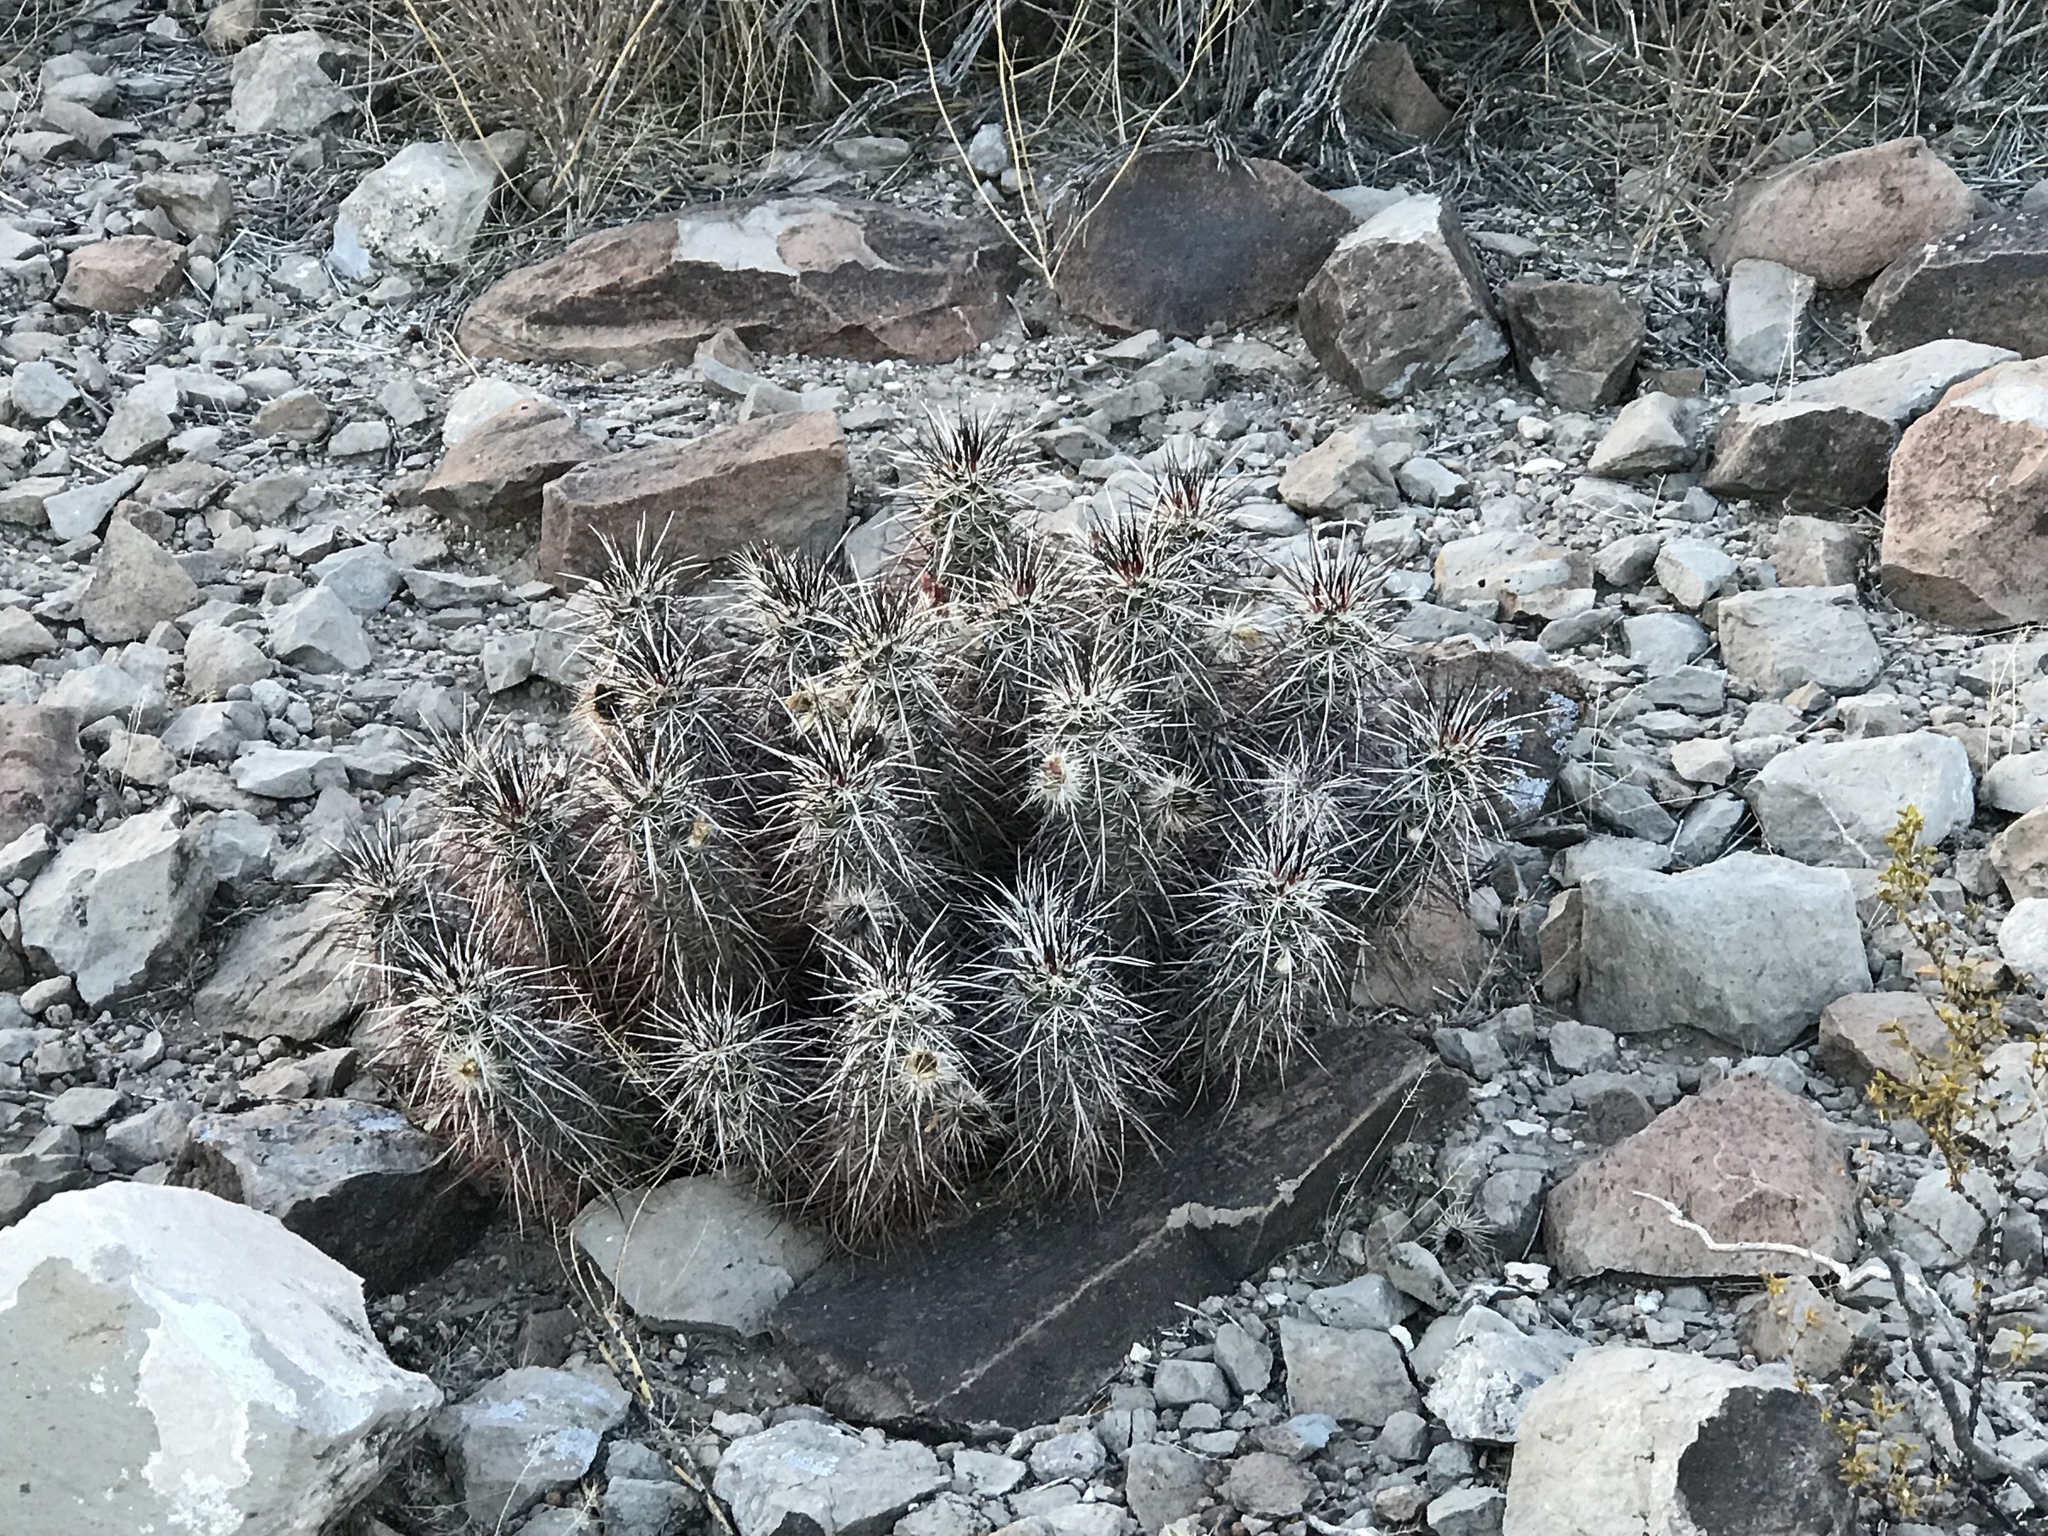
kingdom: Plantae
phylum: Tracheophyta
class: Magnoliopsida
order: Caryophyllales
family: Cactaceae
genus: Echinocereus
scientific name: Echinocereus engelmannii
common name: Engelmann's hedgehog cactus
